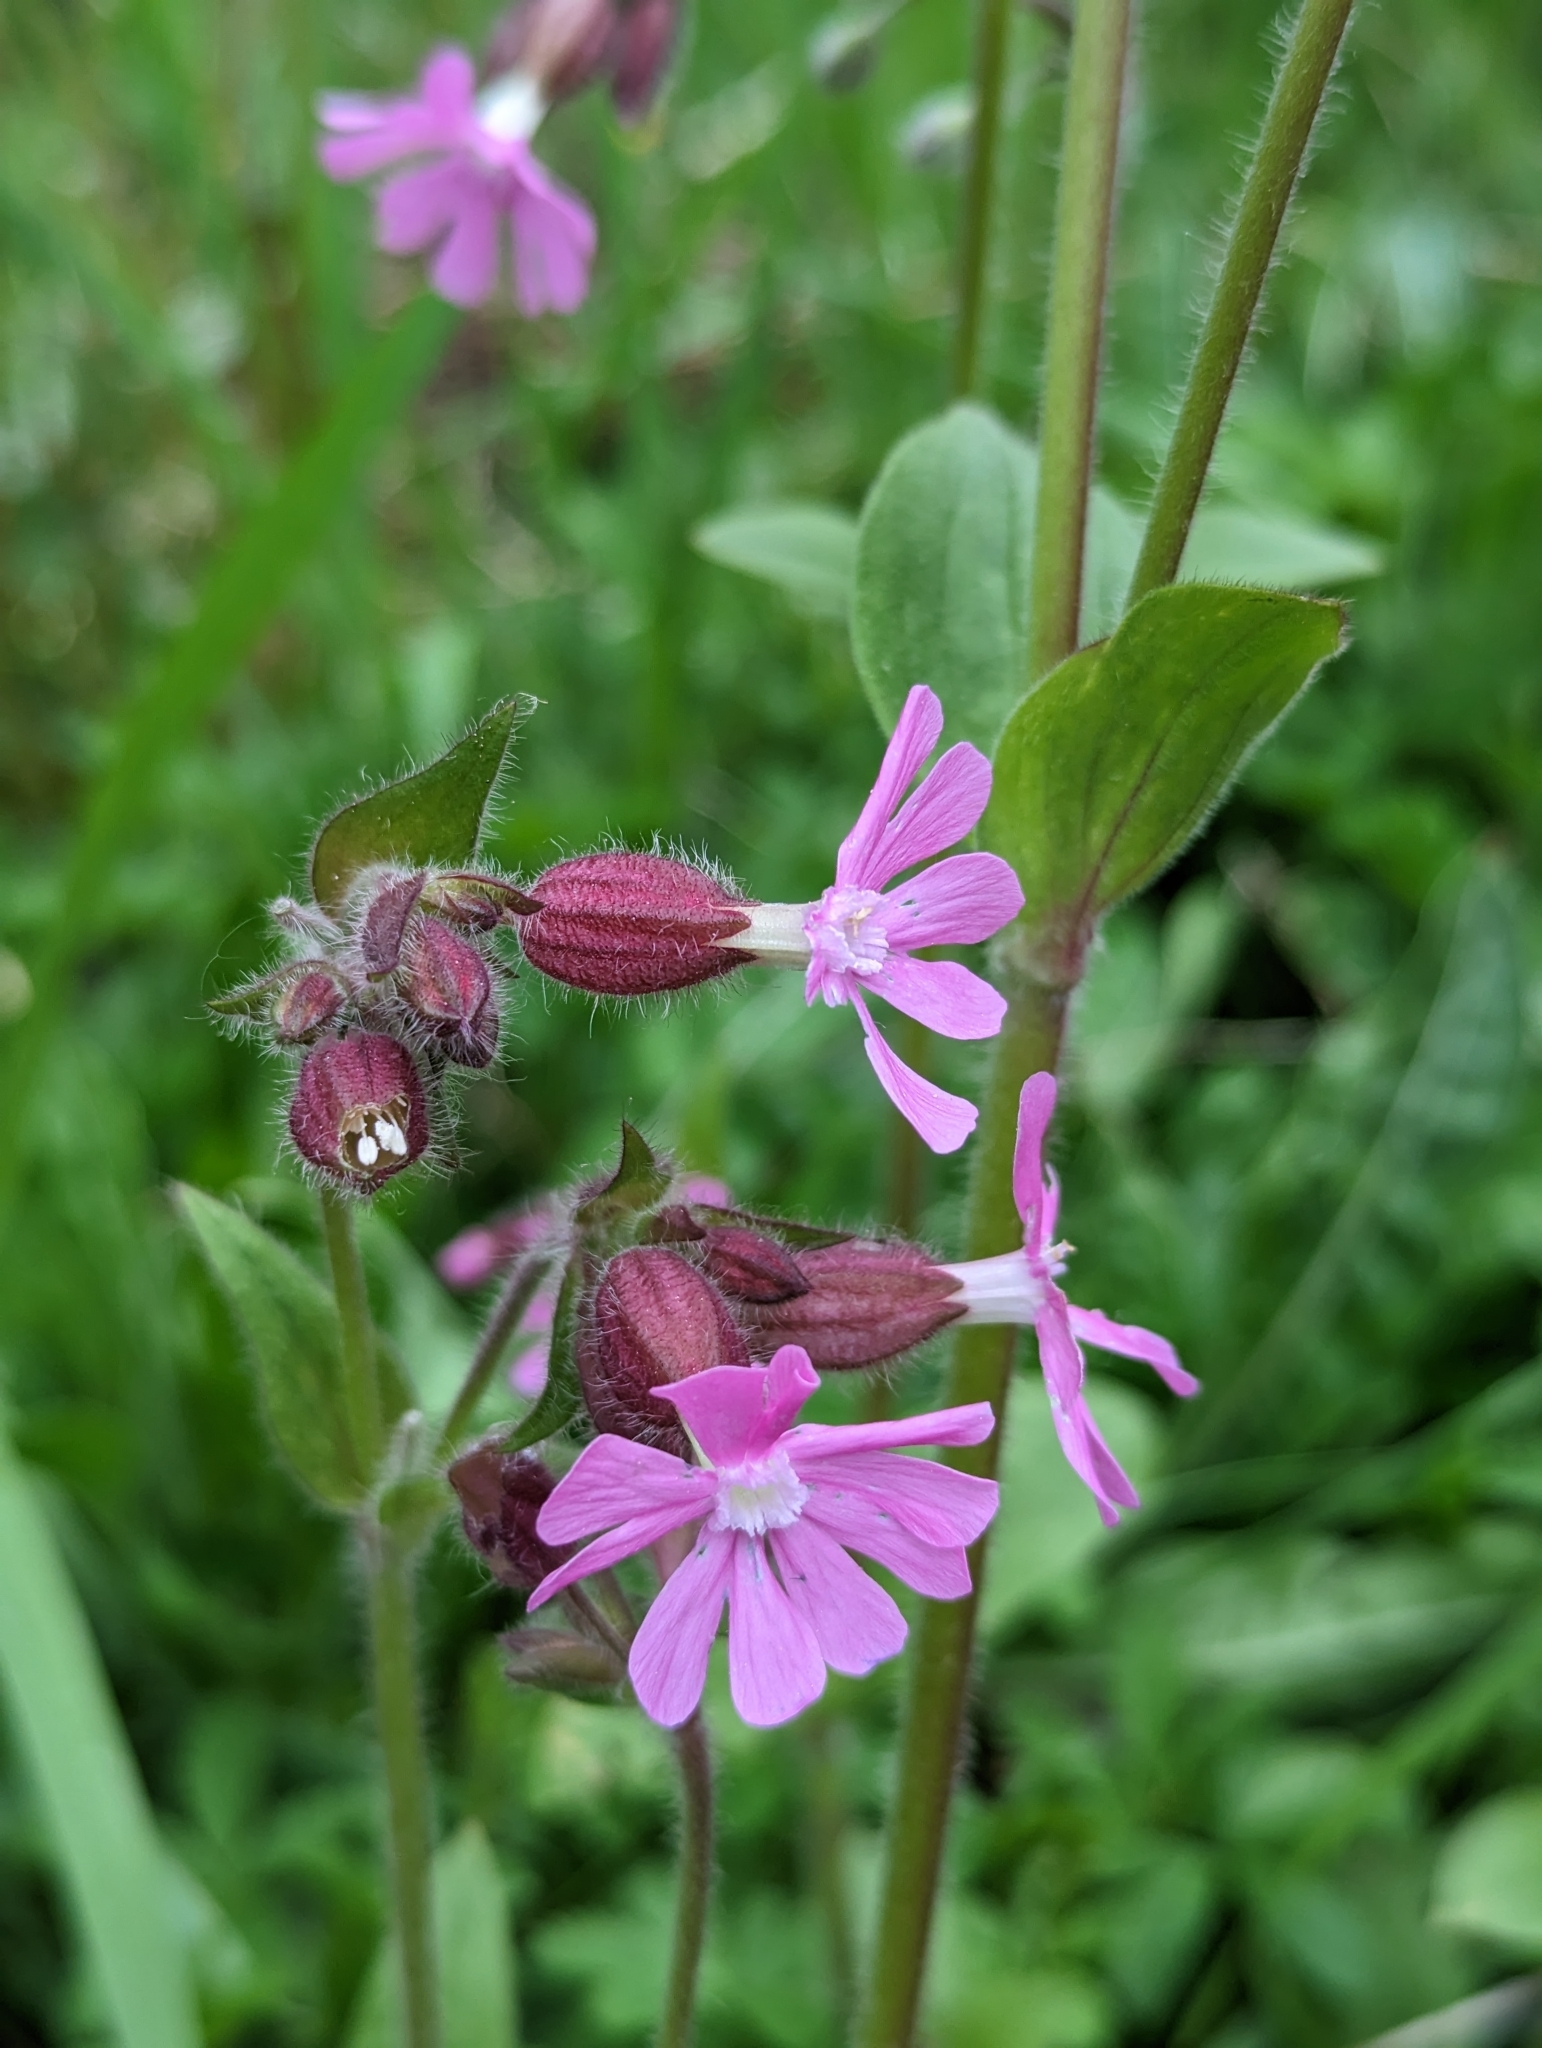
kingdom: Plantae
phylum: Tracheophyta
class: Magnoliopsida
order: Caryophyllales
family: Caryophyllaceae
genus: Silene
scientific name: Silene dioica
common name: Red campion
